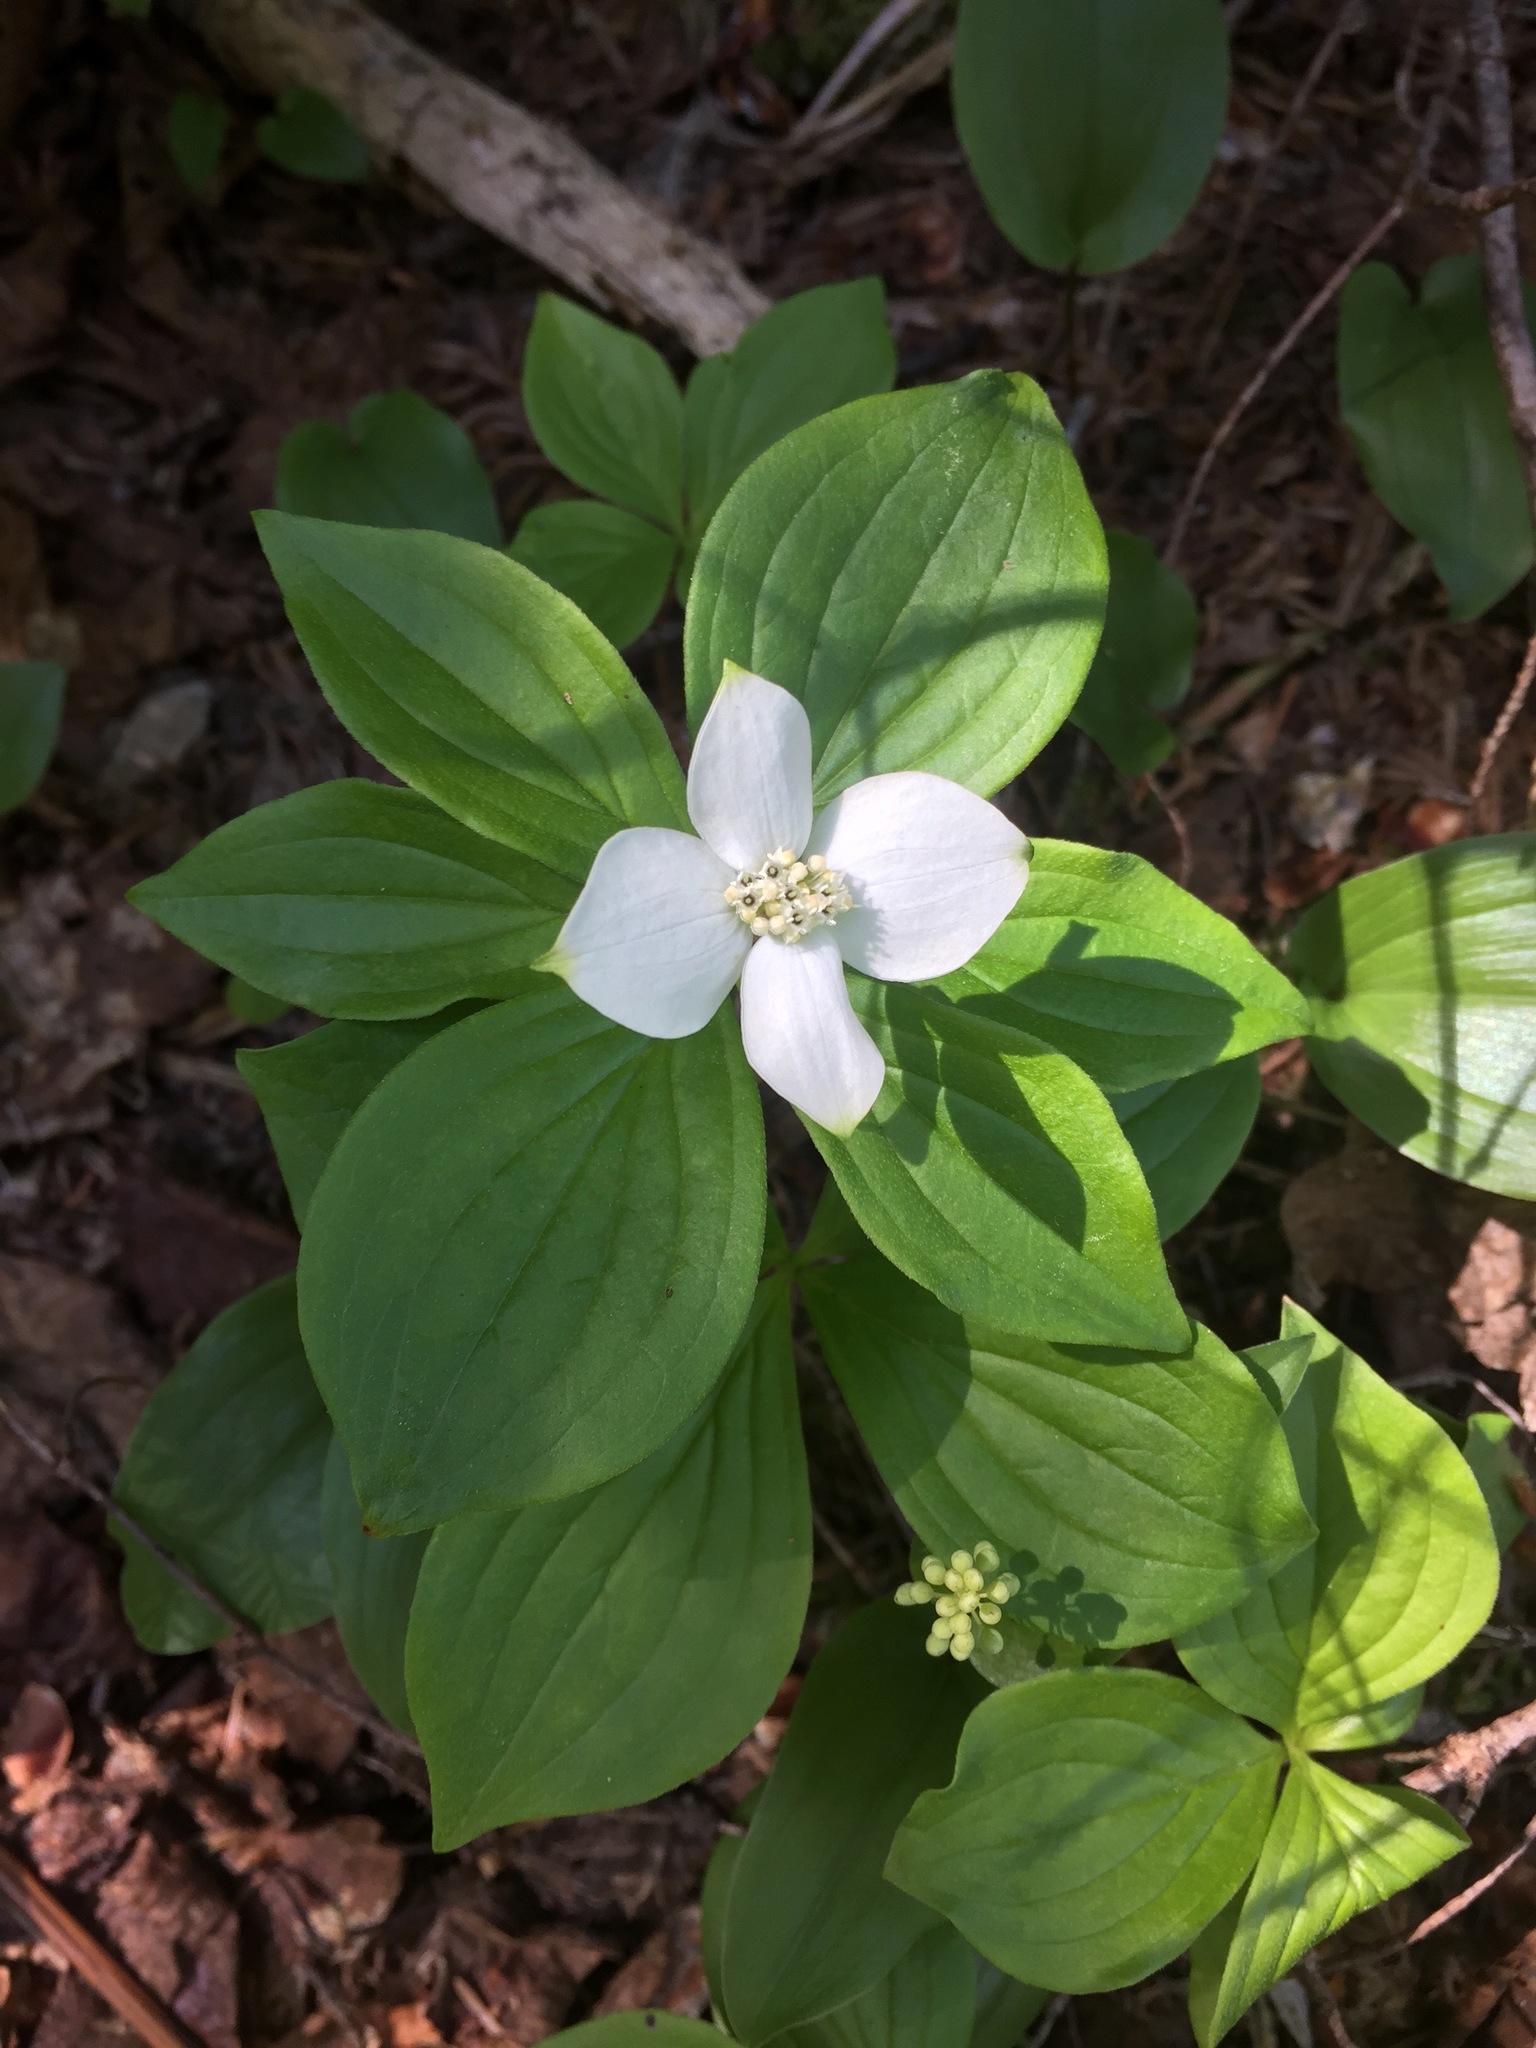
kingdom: Plantae
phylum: Tracheophyta
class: Magnoliopsida
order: Cornales
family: Cornaceae
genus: Cornus
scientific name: Cornus canadensis
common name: Creeping dogwood
